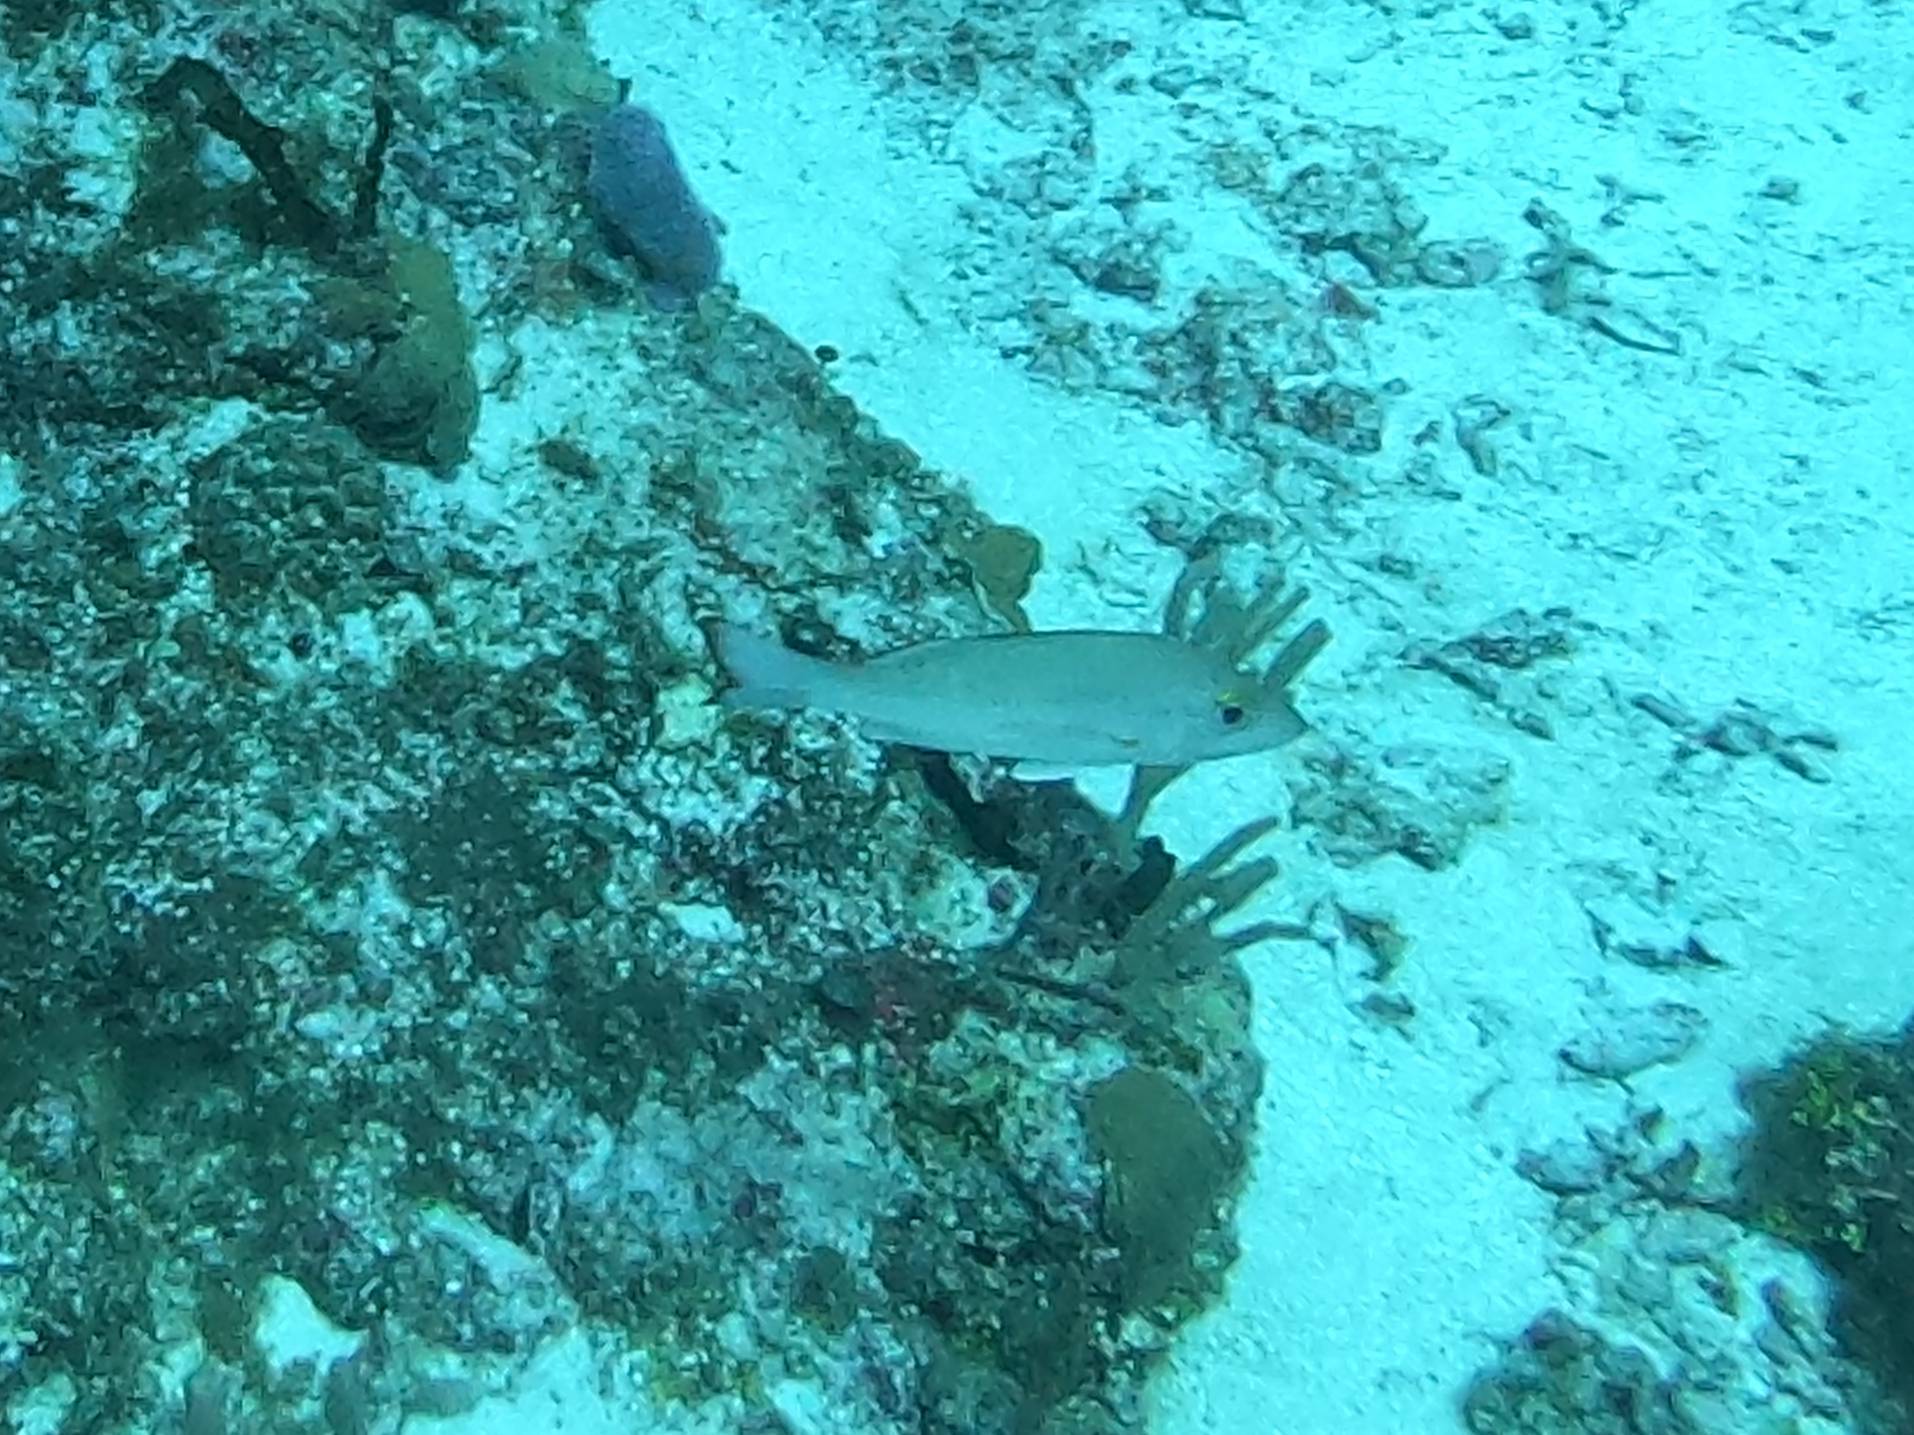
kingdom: Animalia
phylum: Chordata
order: Perciformes
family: Lutjanidae
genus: Lutjanus
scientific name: Lutjanus mahogoni
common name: Spot snapper
